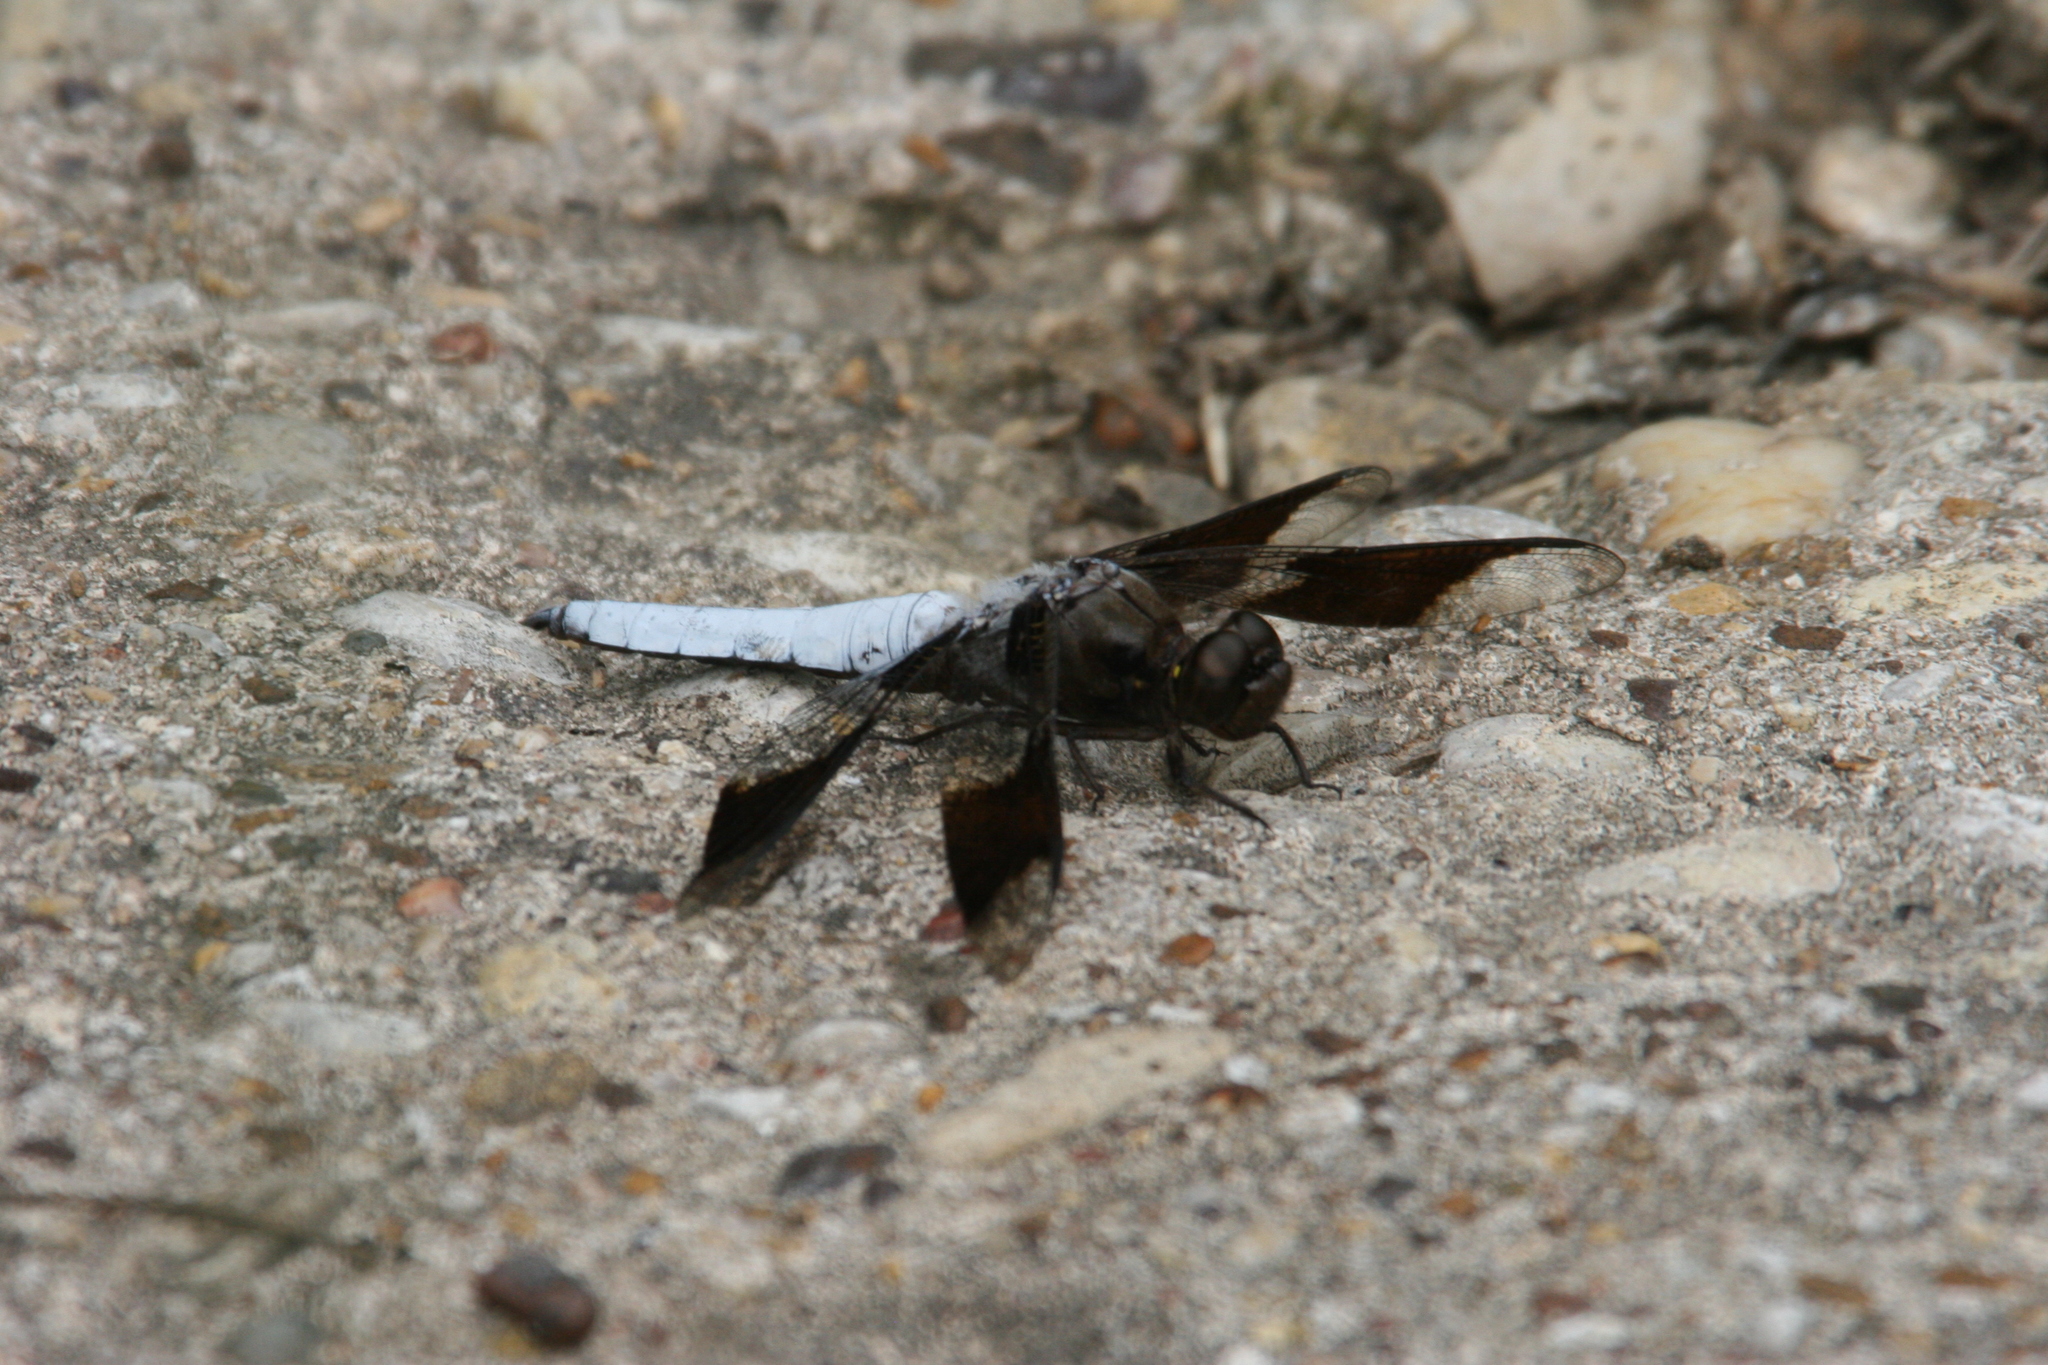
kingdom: Animalia
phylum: Arthropoda
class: Insecta
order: Odonata
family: Libellulidae
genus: Plathemis
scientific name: Plathemis lydia
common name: Common whitetail
